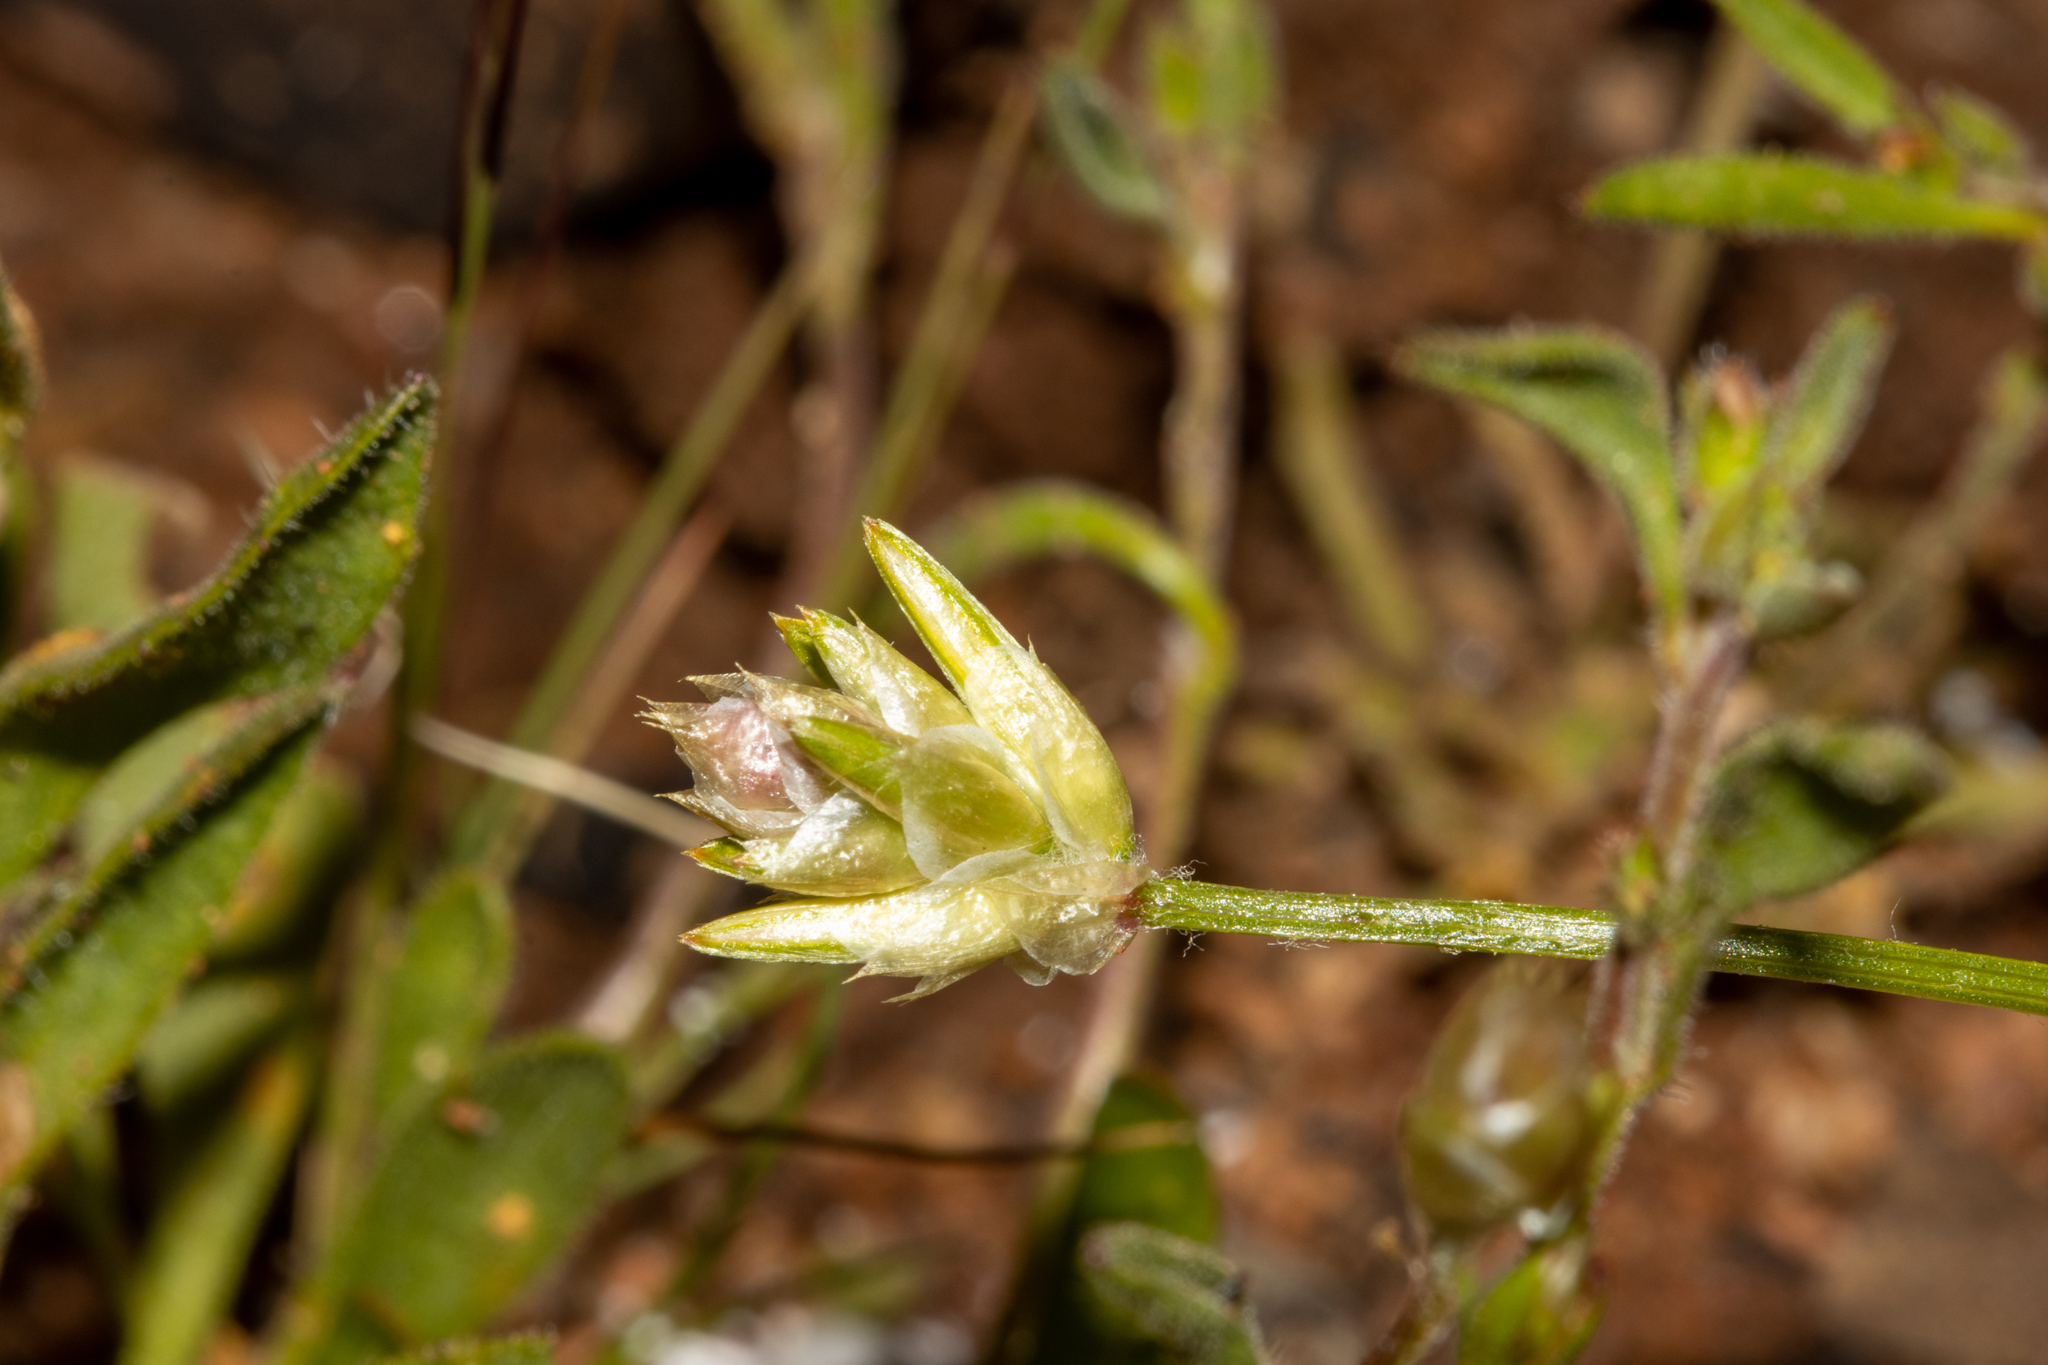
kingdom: Plantae
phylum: Tracheophyta
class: Magnoliopsida
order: Caryophyllales
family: Amaranthaceae
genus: Ptilotus
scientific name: Ptilotus eremita
